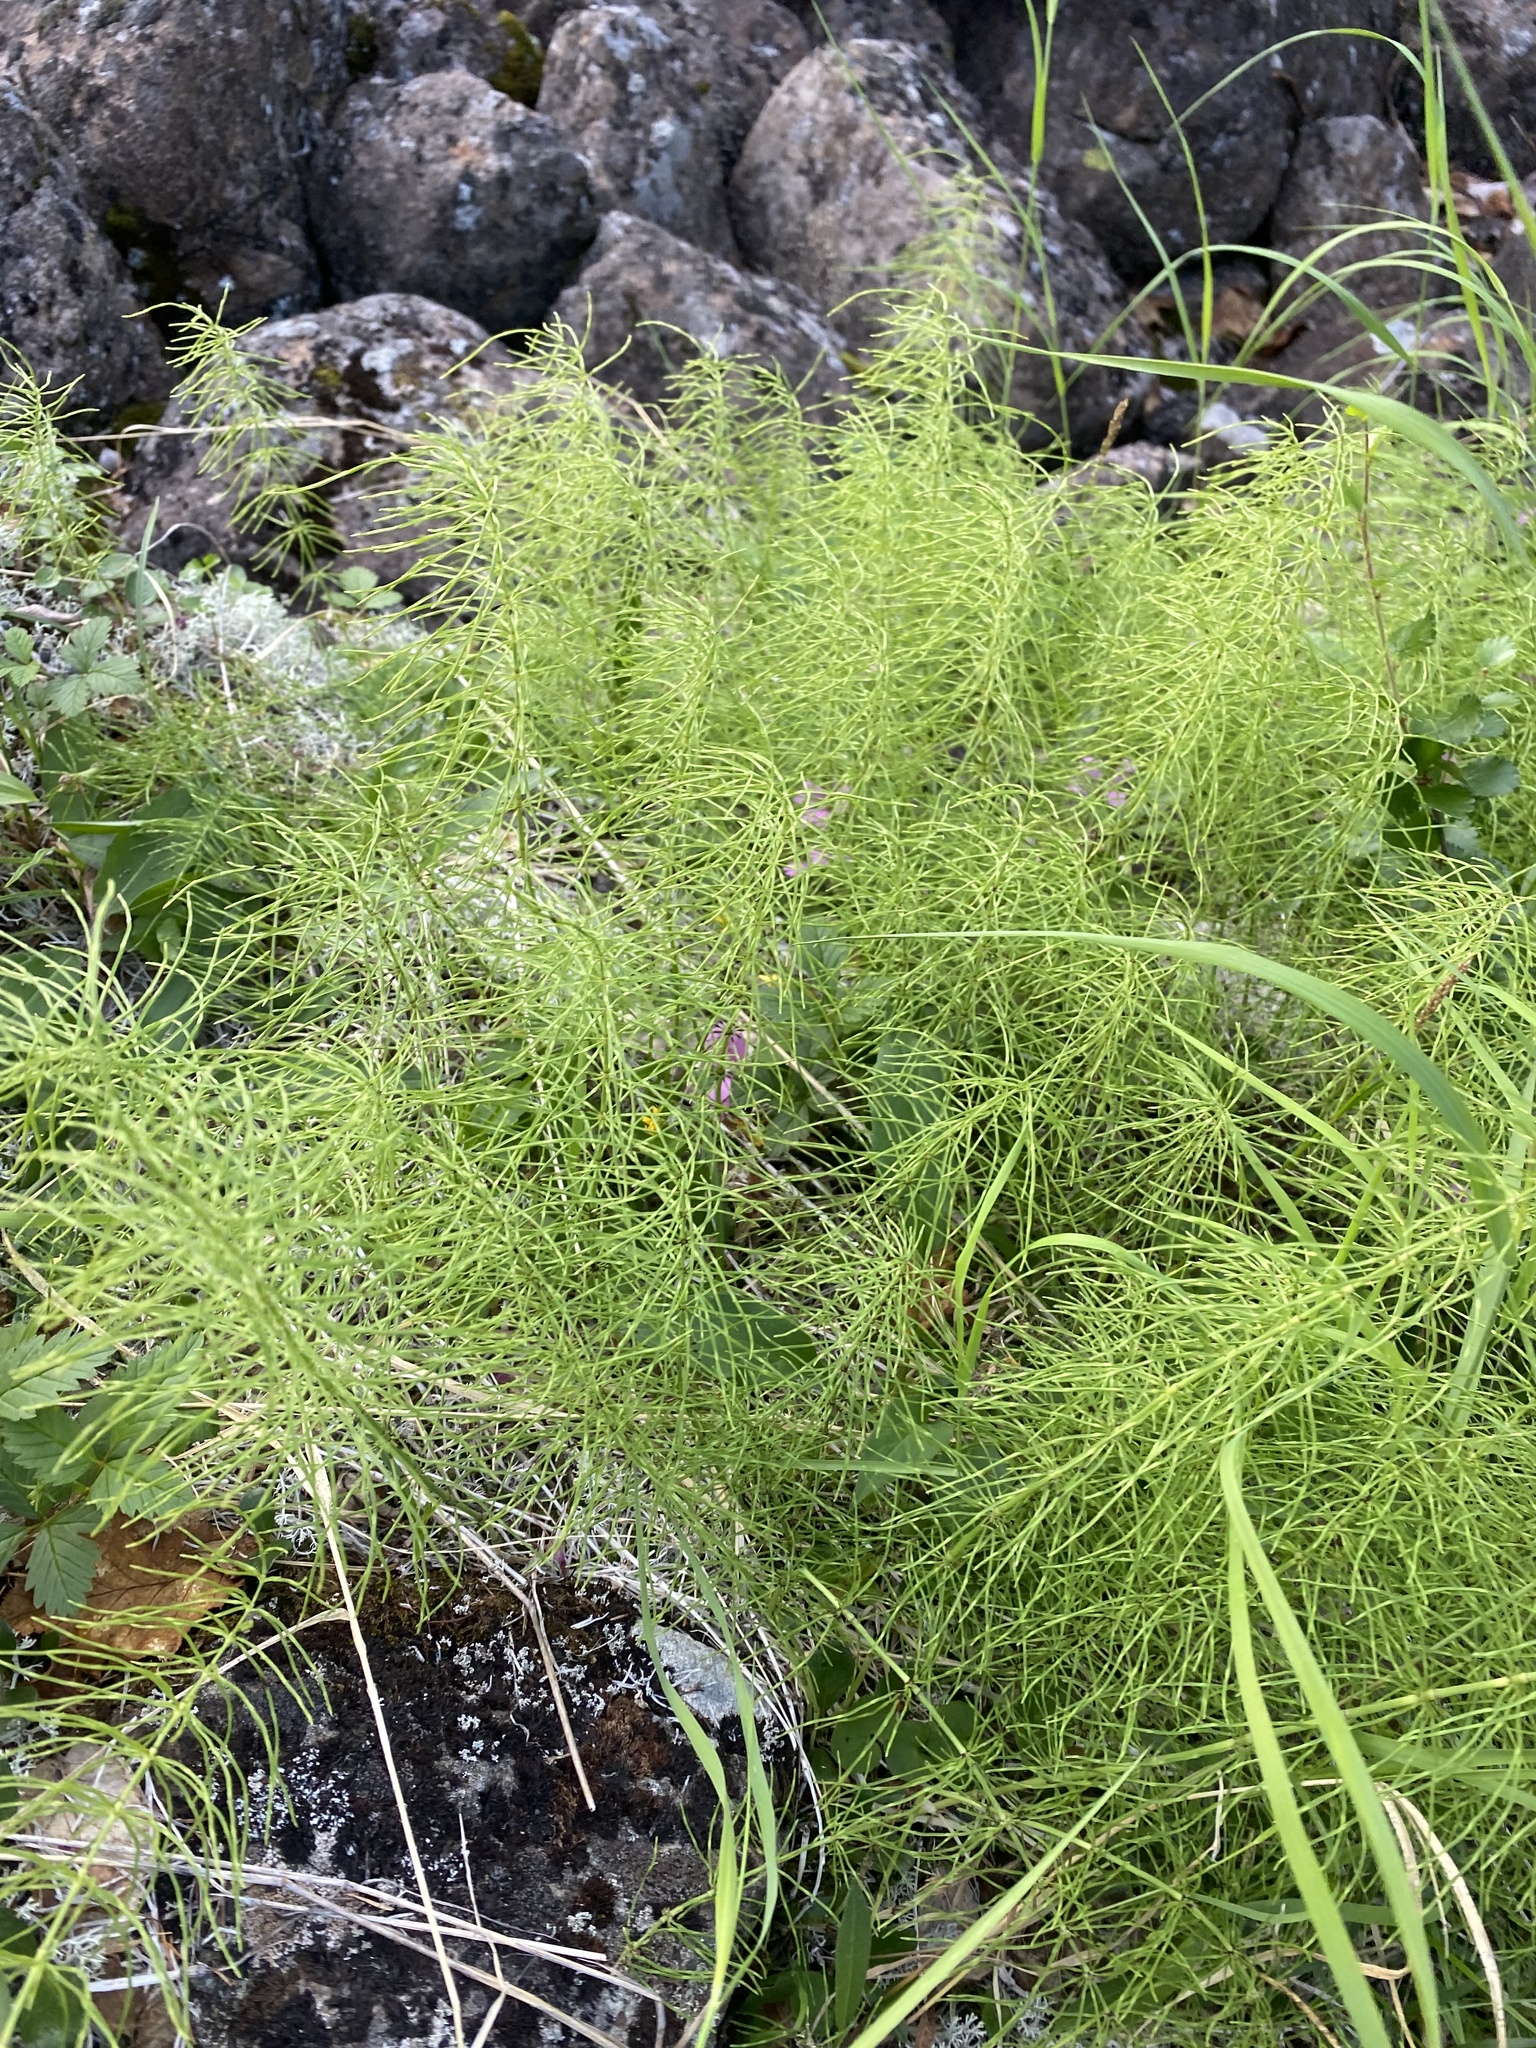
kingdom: Plantae
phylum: Tracheophyta
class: Polypodiopsida
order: Equisetales
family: Equisetaceae
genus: Equisetum
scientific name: Equisetum pratense
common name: Meadow horsetail
